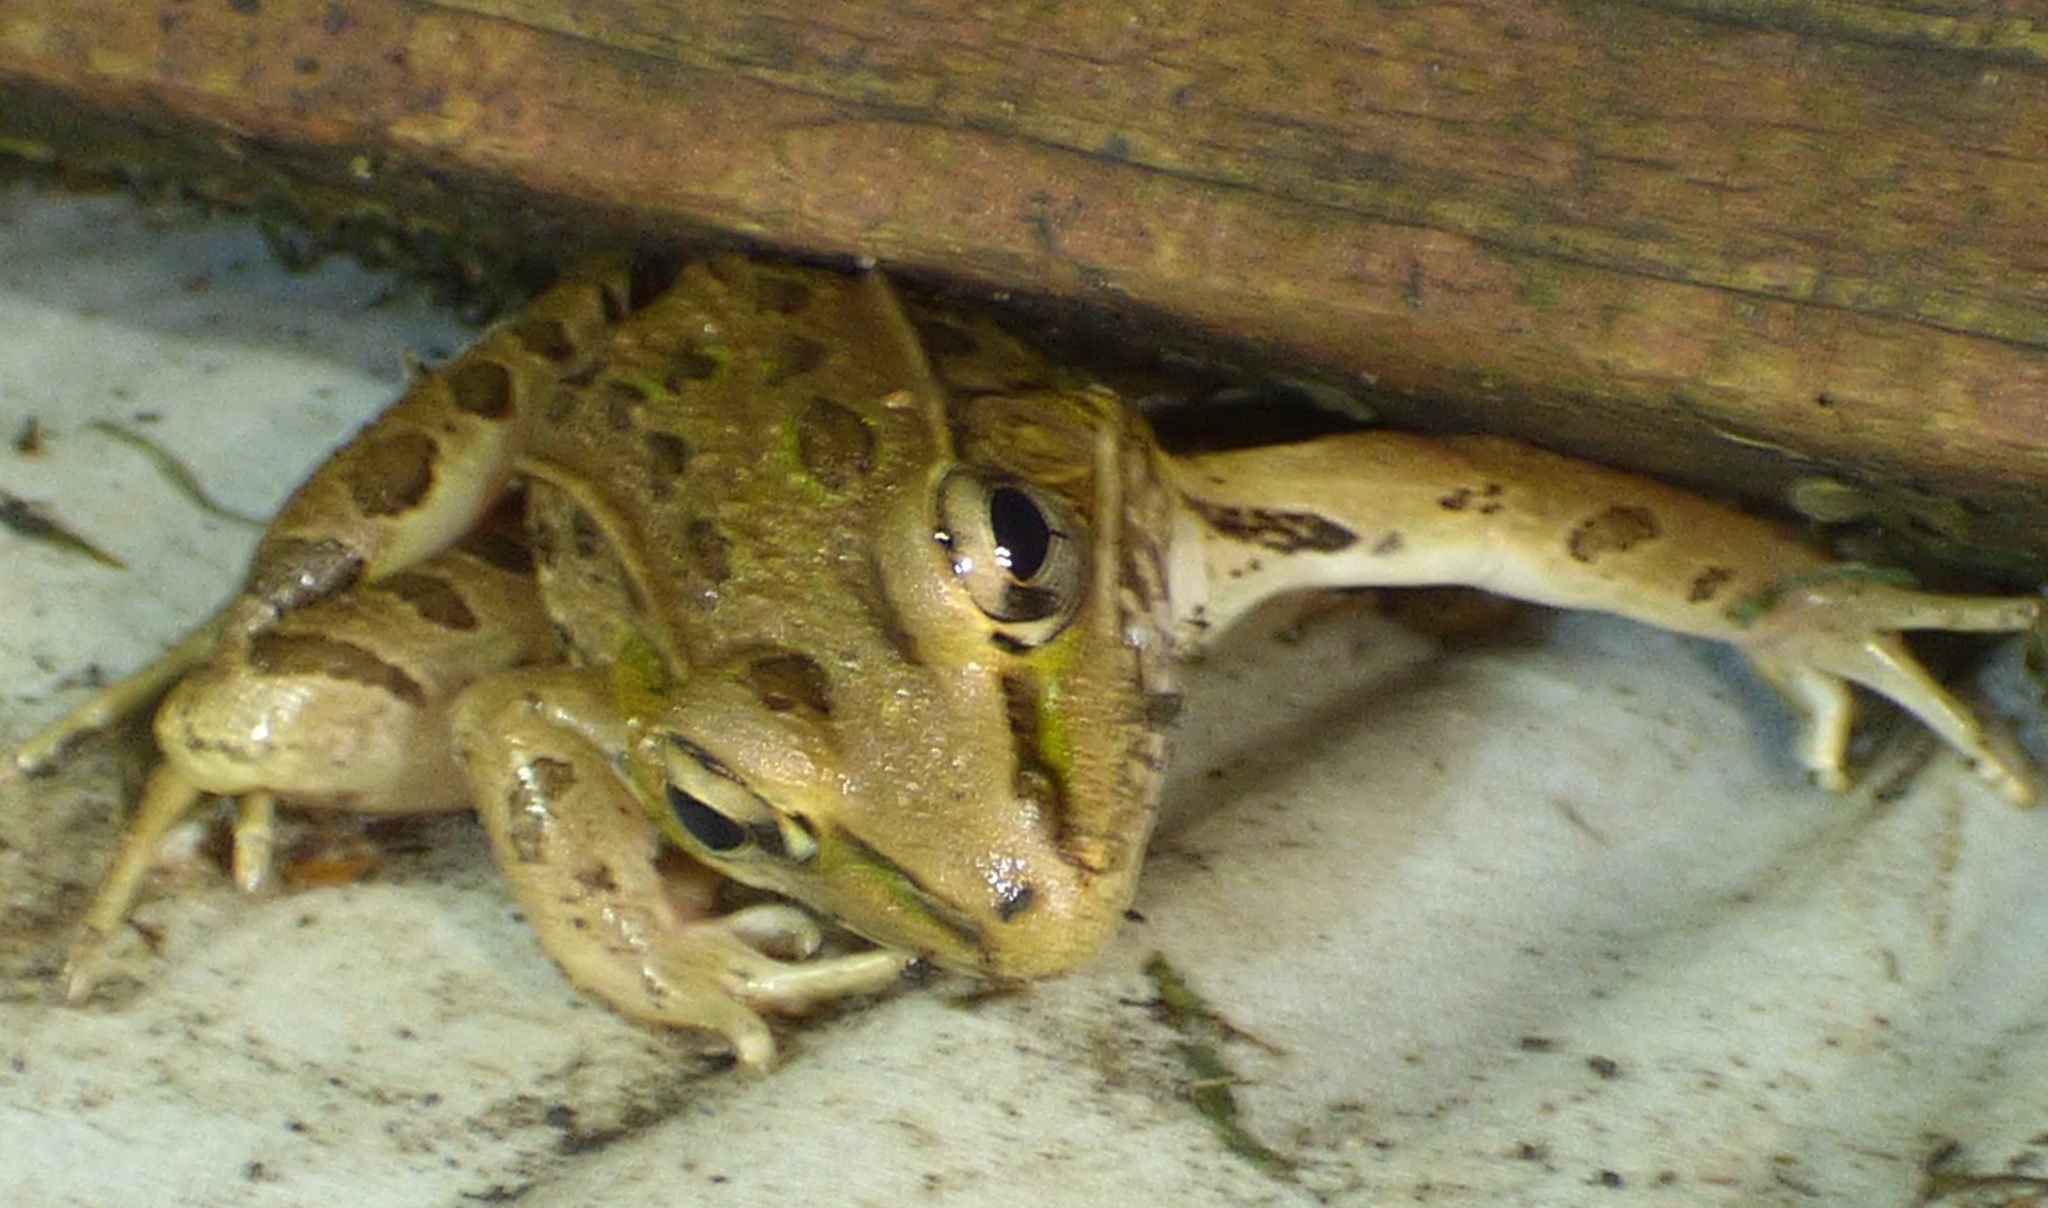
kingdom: Animalia
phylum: Chordata
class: Amphibia
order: Anura
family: Ranidae
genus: Lithobates
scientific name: Lithobates sphenocephalus
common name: Southern leopard frog
